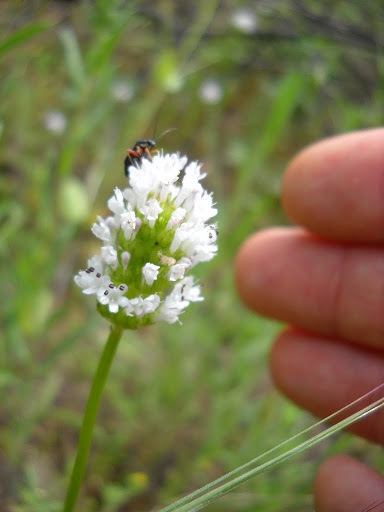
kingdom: Plantae
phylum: Tracheophyta
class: Magnoliopsida
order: Dipsacales
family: Caprifoliaceae
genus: Plectritis
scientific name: Plectritis macroptera
